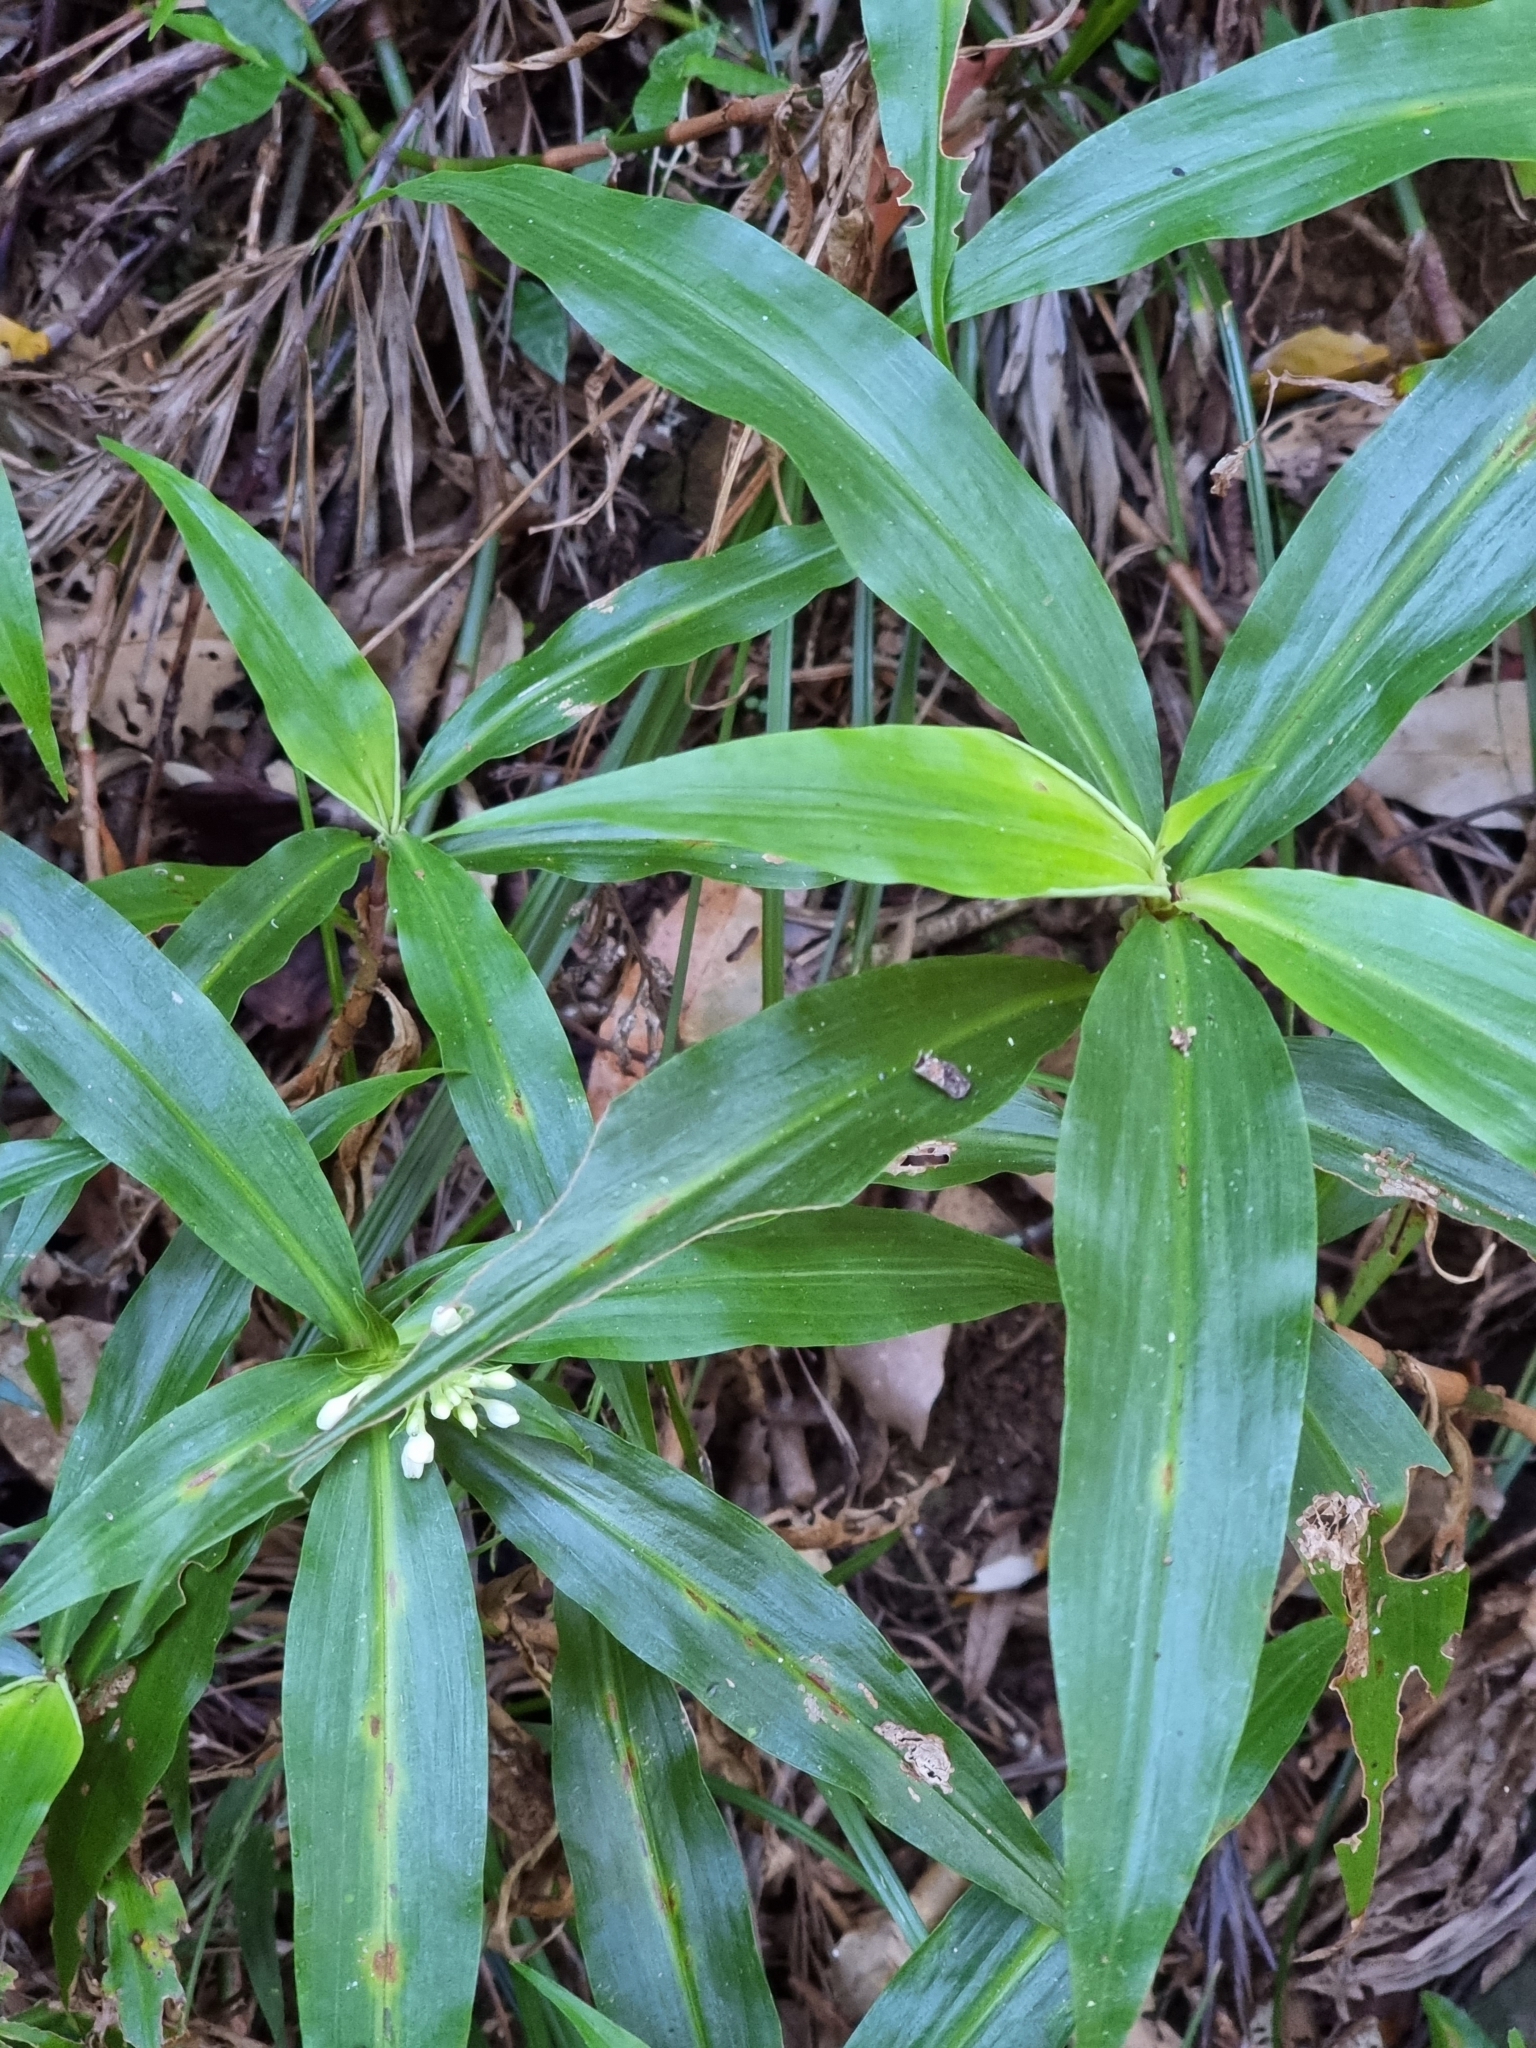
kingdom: Plantae
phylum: Tracheophyta
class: Liliopsida
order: Commelinales
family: Commelinaceae
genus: Pollia
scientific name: Pollia crispata
